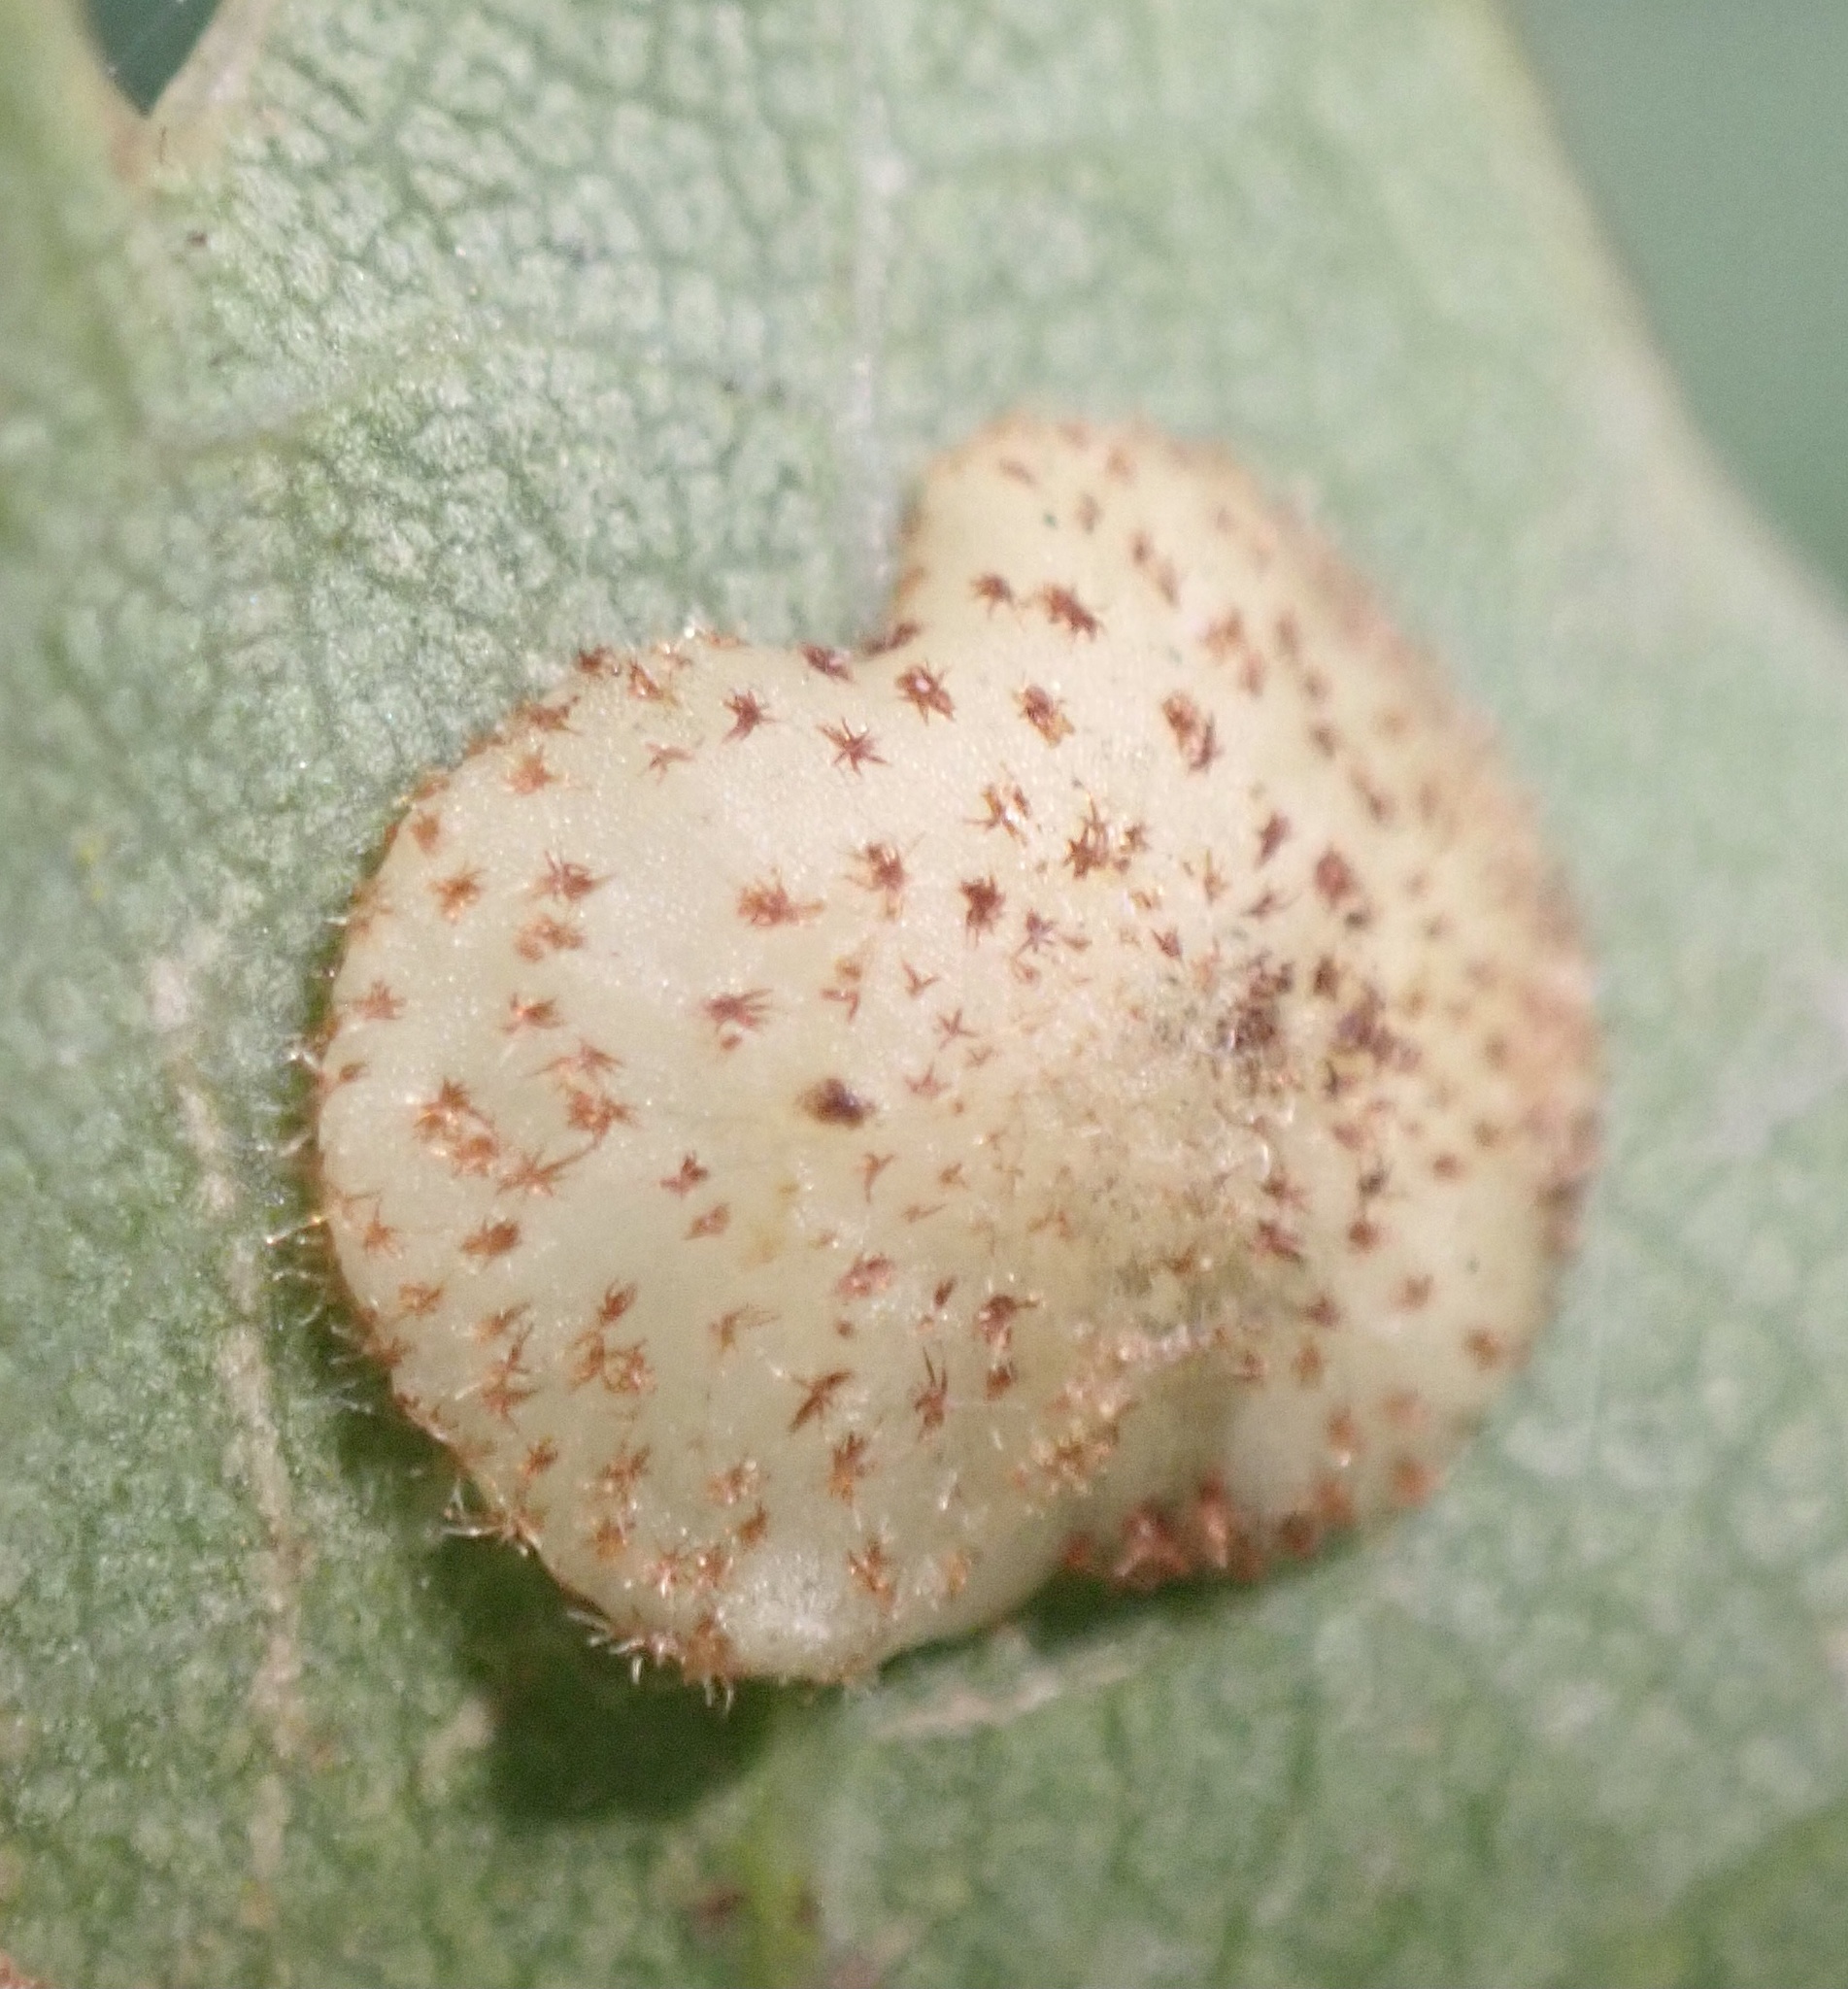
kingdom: Animalia
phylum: Arthropoda
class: Insecta
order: Hymenoptera
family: Cynipidae
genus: Neuroterus
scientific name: Neuroterus quercusbaccarum
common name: Common spangle gall
